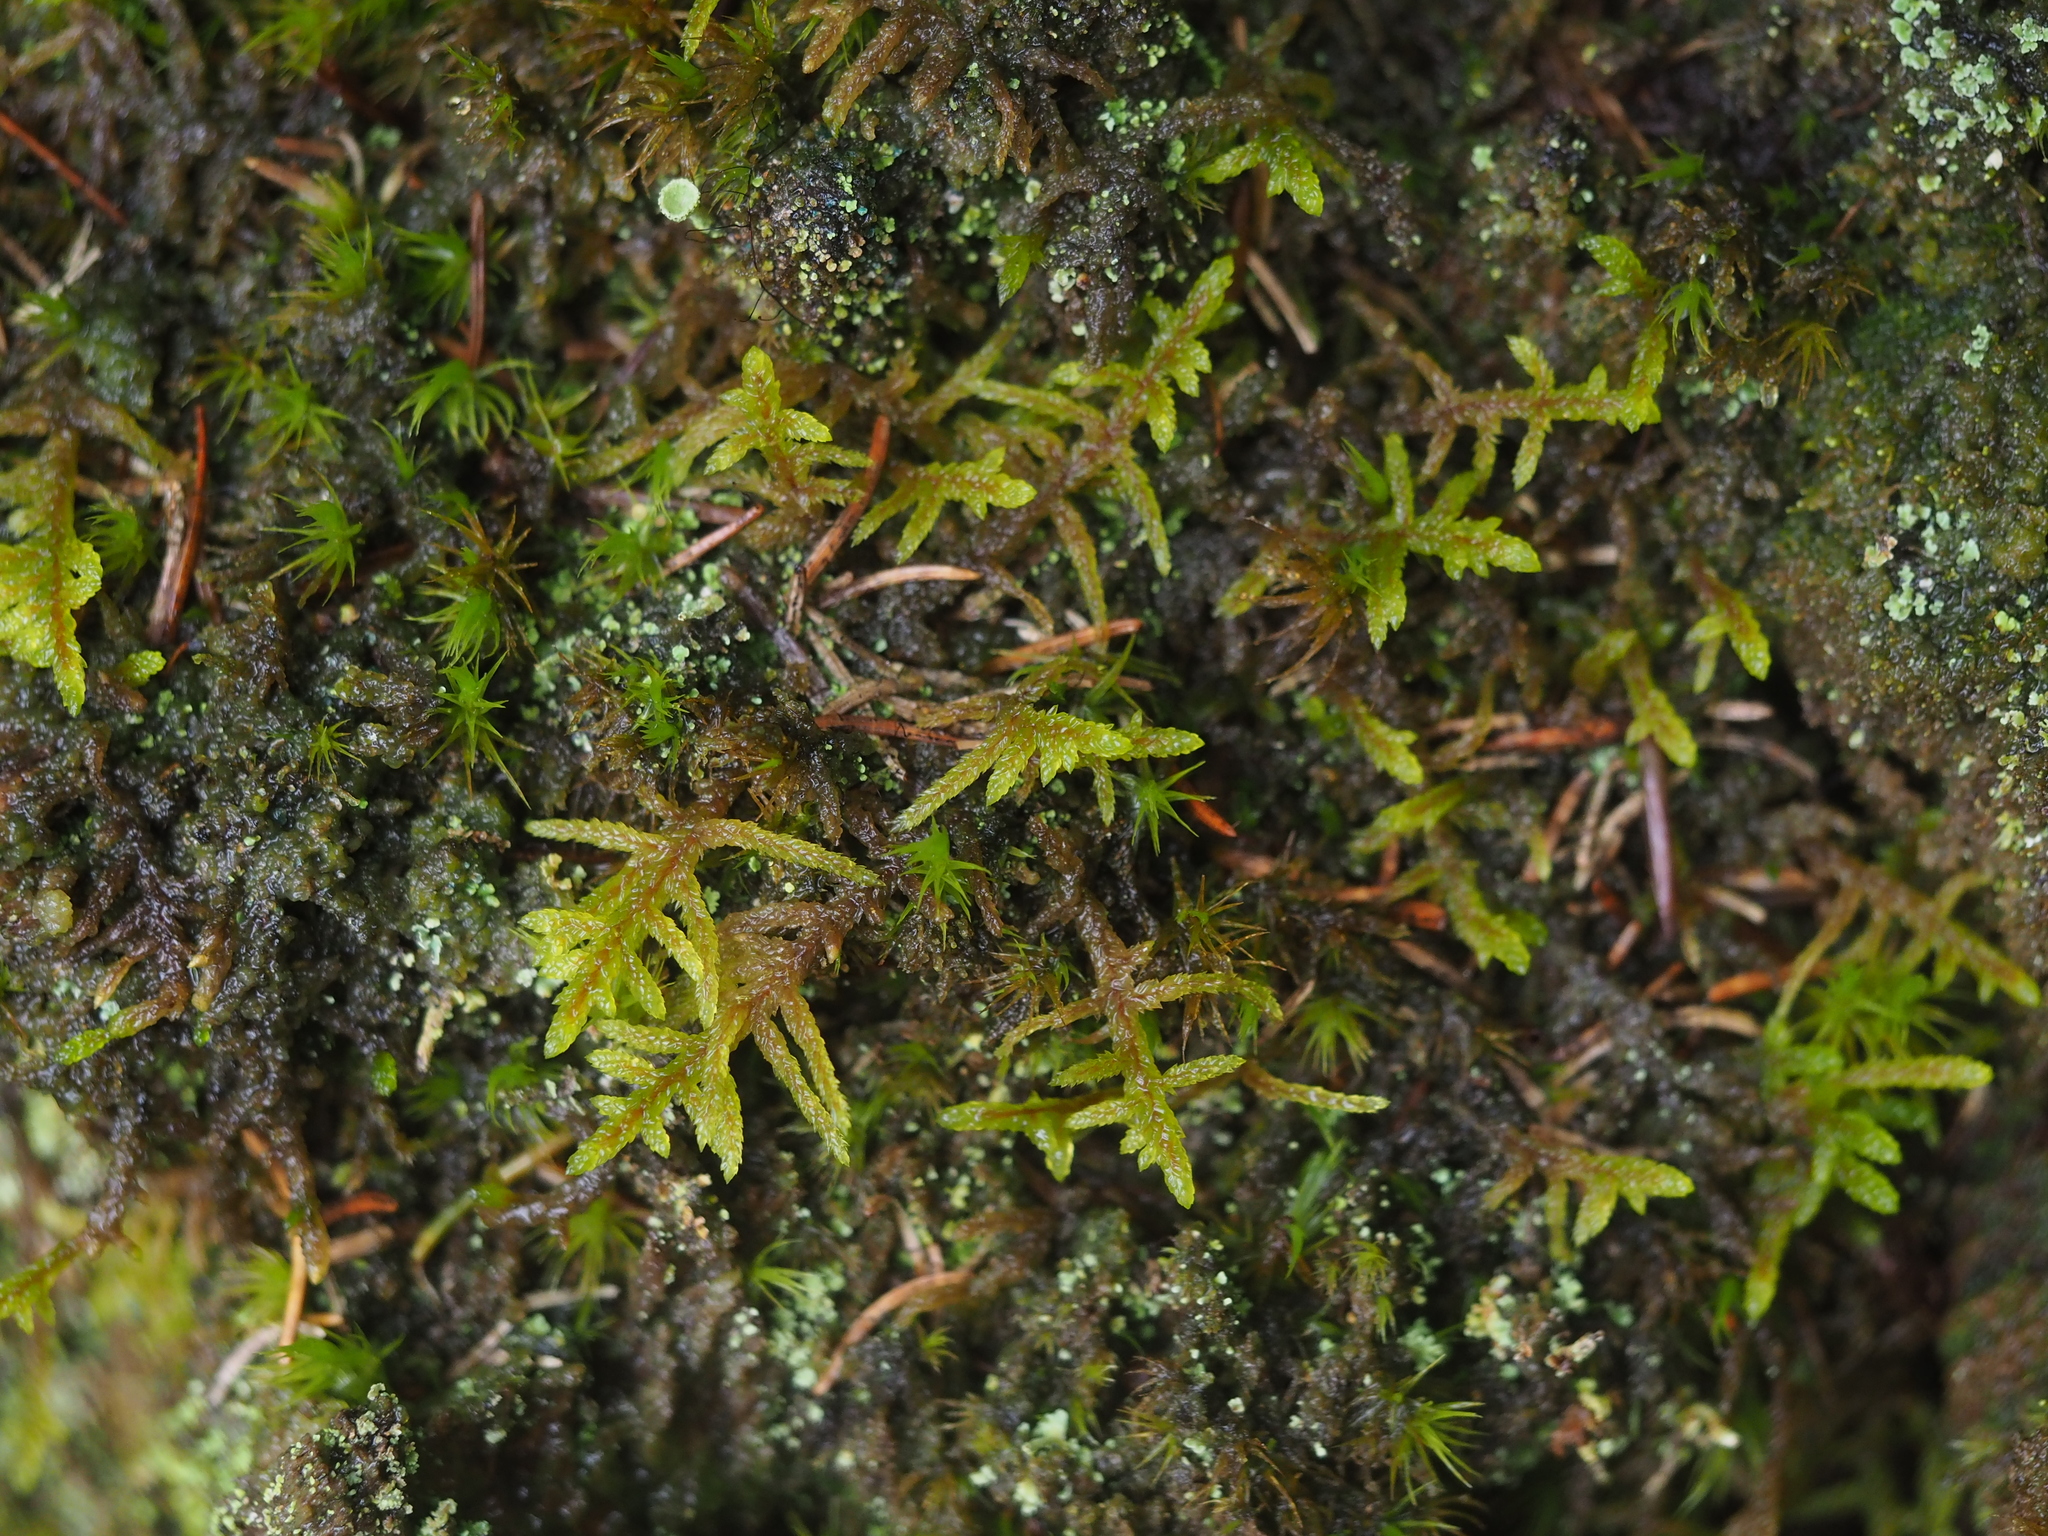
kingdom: Plantae
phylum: Bryophyta
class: Bryopsida
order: Hypnales
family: Hylocomiaceae
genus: Pleurozium
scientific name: Pleurozium schreberi
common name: Red-stemmed feather moss
